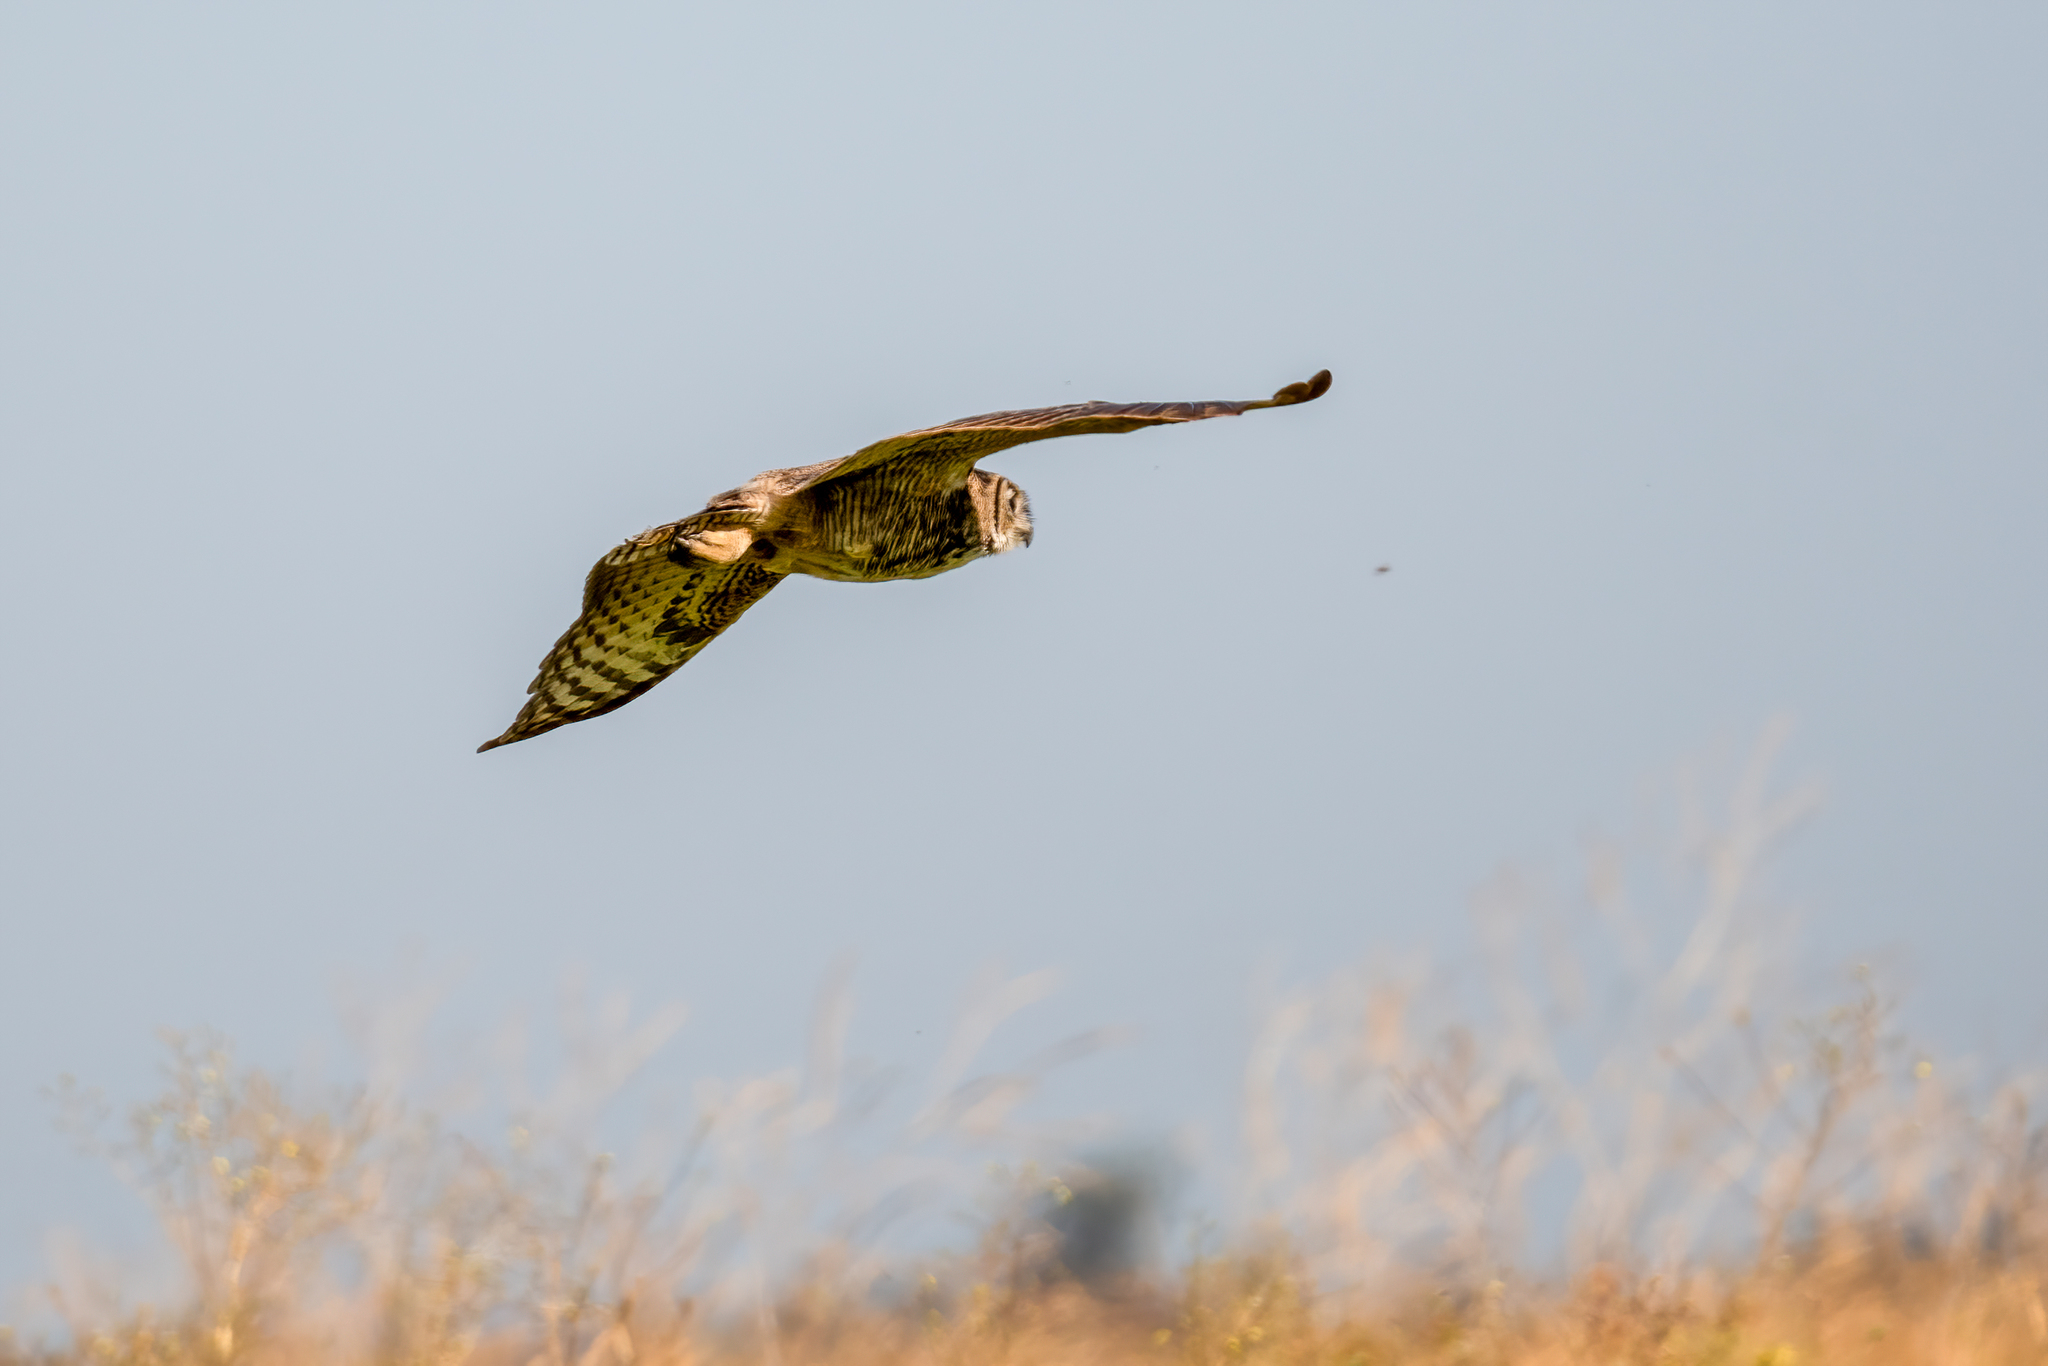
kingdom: Animalia
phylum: Chordata
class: Aves
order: Strigiformes
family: Strigidae
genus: Bubo
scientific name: Bubo virginianus
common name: Great horned owl
